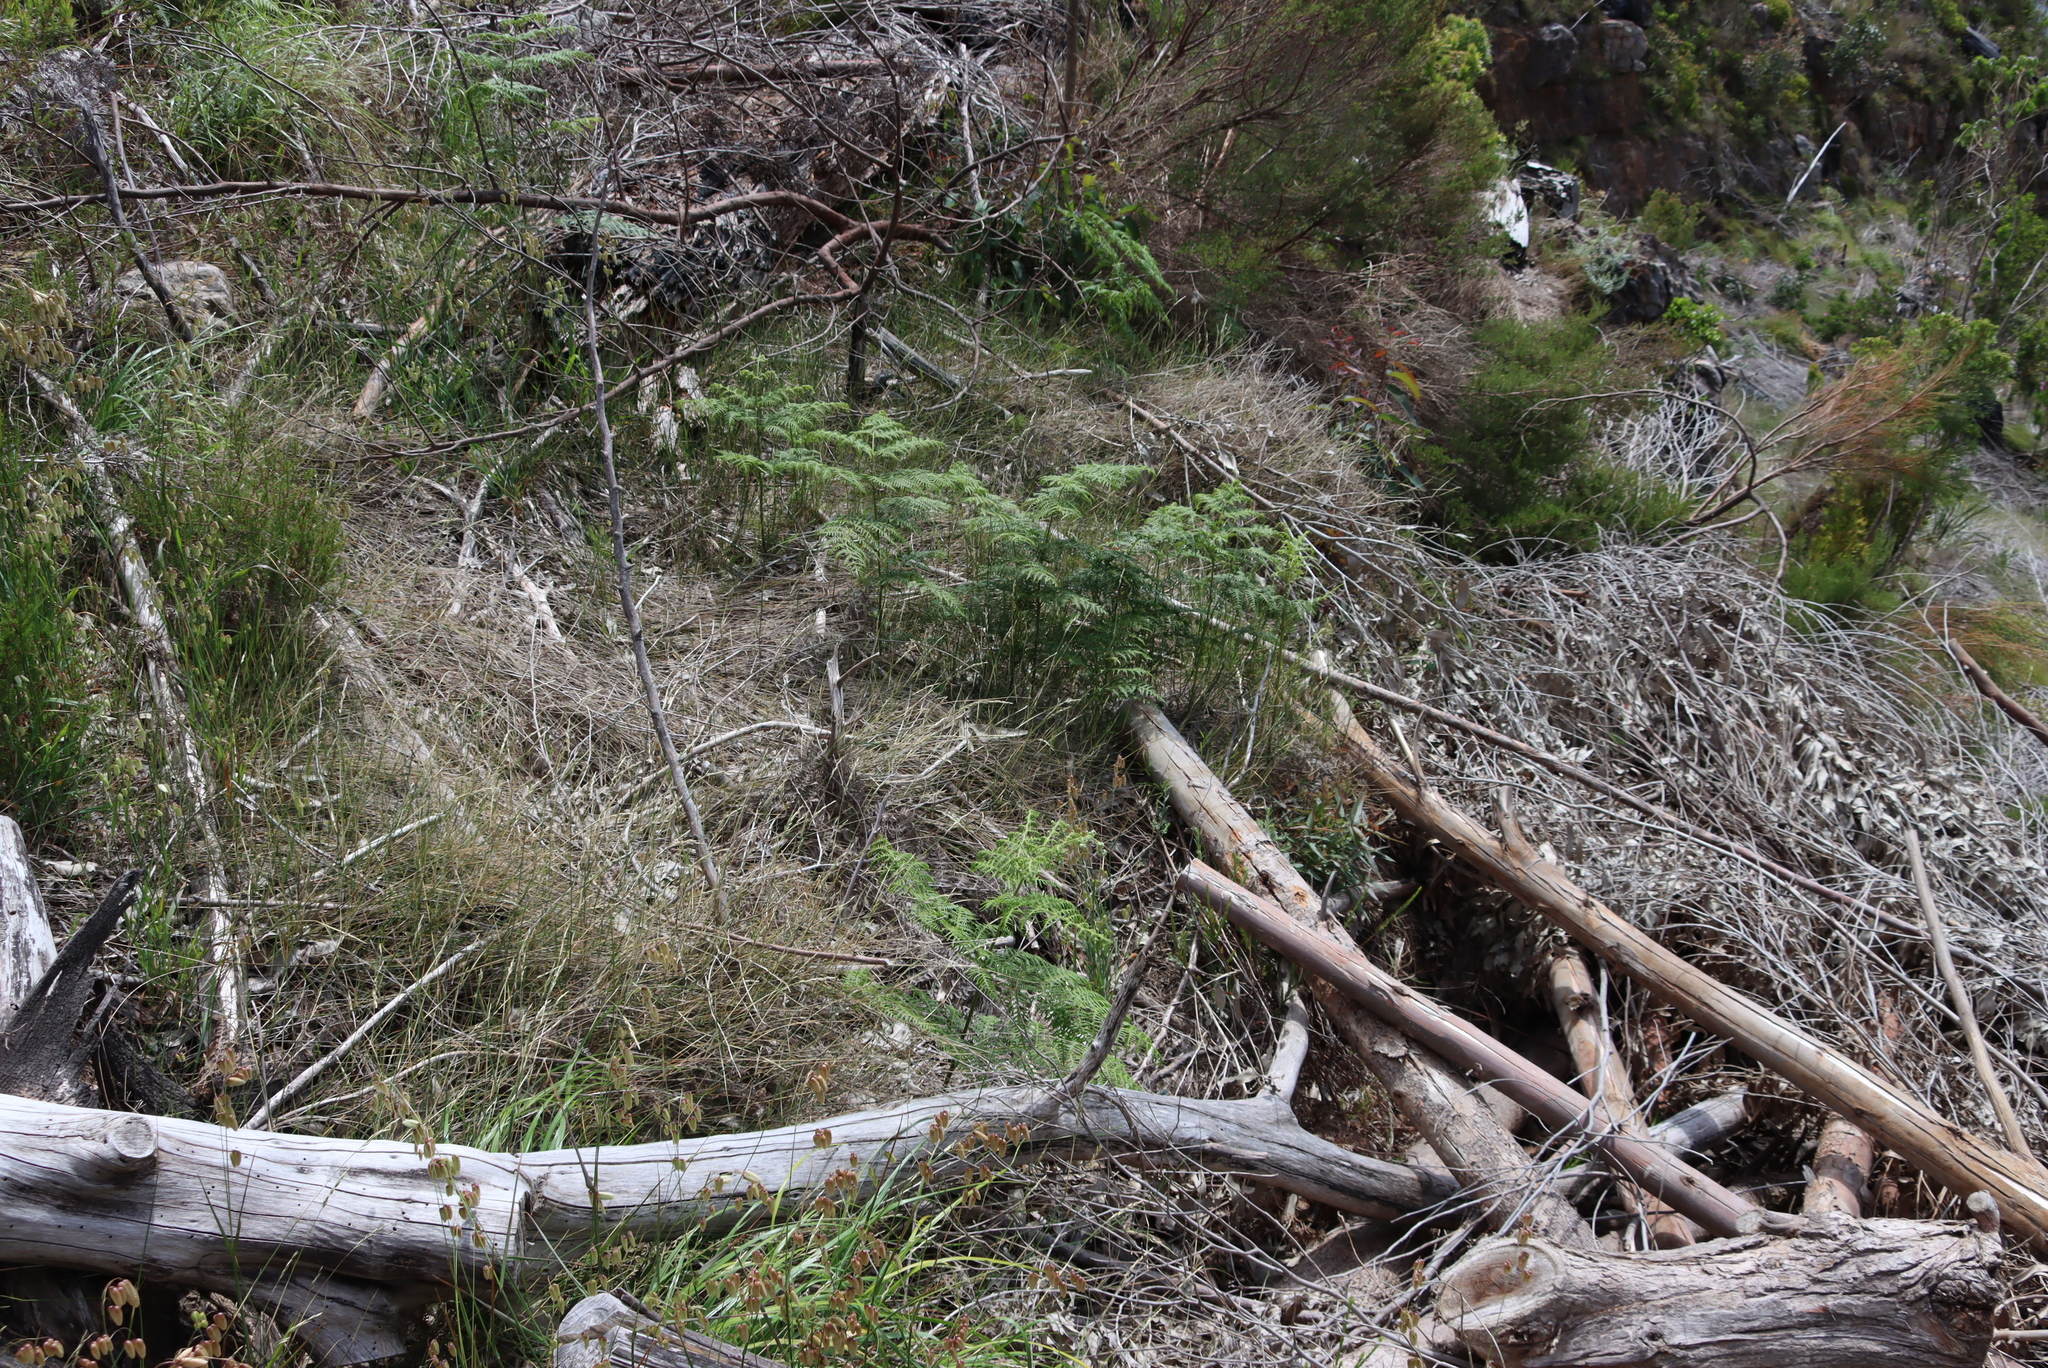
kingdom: Plantae
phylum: Tracheophyta
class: Polypodiopsida
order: Polypodiales
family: Dennstaedtiaceae
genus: Pteridium
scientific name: Pteridium aquilinum
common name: Bracken
